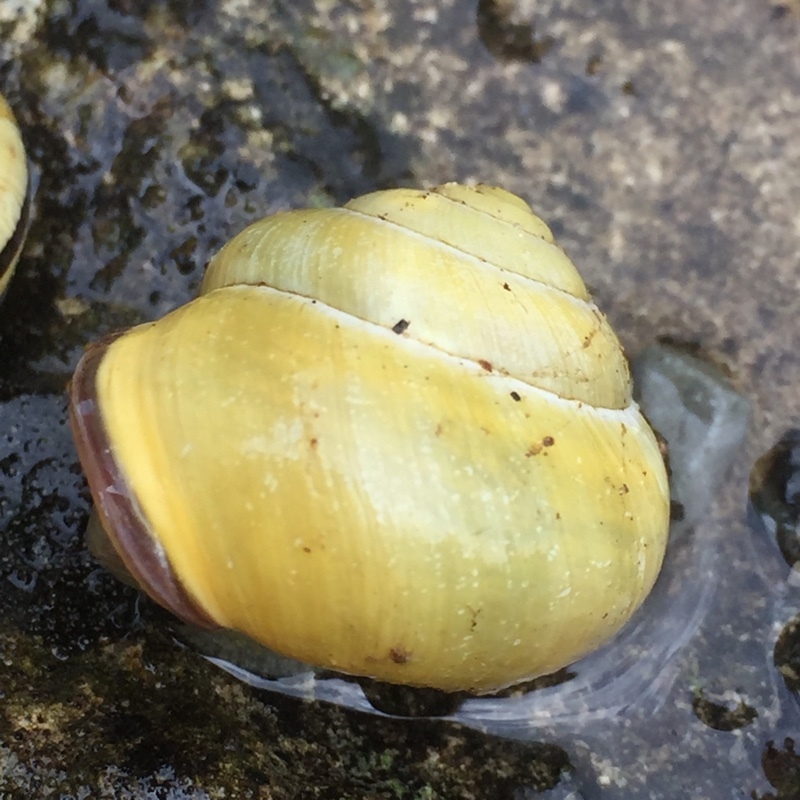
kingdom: Animalia
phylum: Mollusca
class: Gastropoda
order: Stylommatophora
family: Helicidae
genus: Cepaea
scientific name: Cepaea nemoralis
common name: Grovesnail
